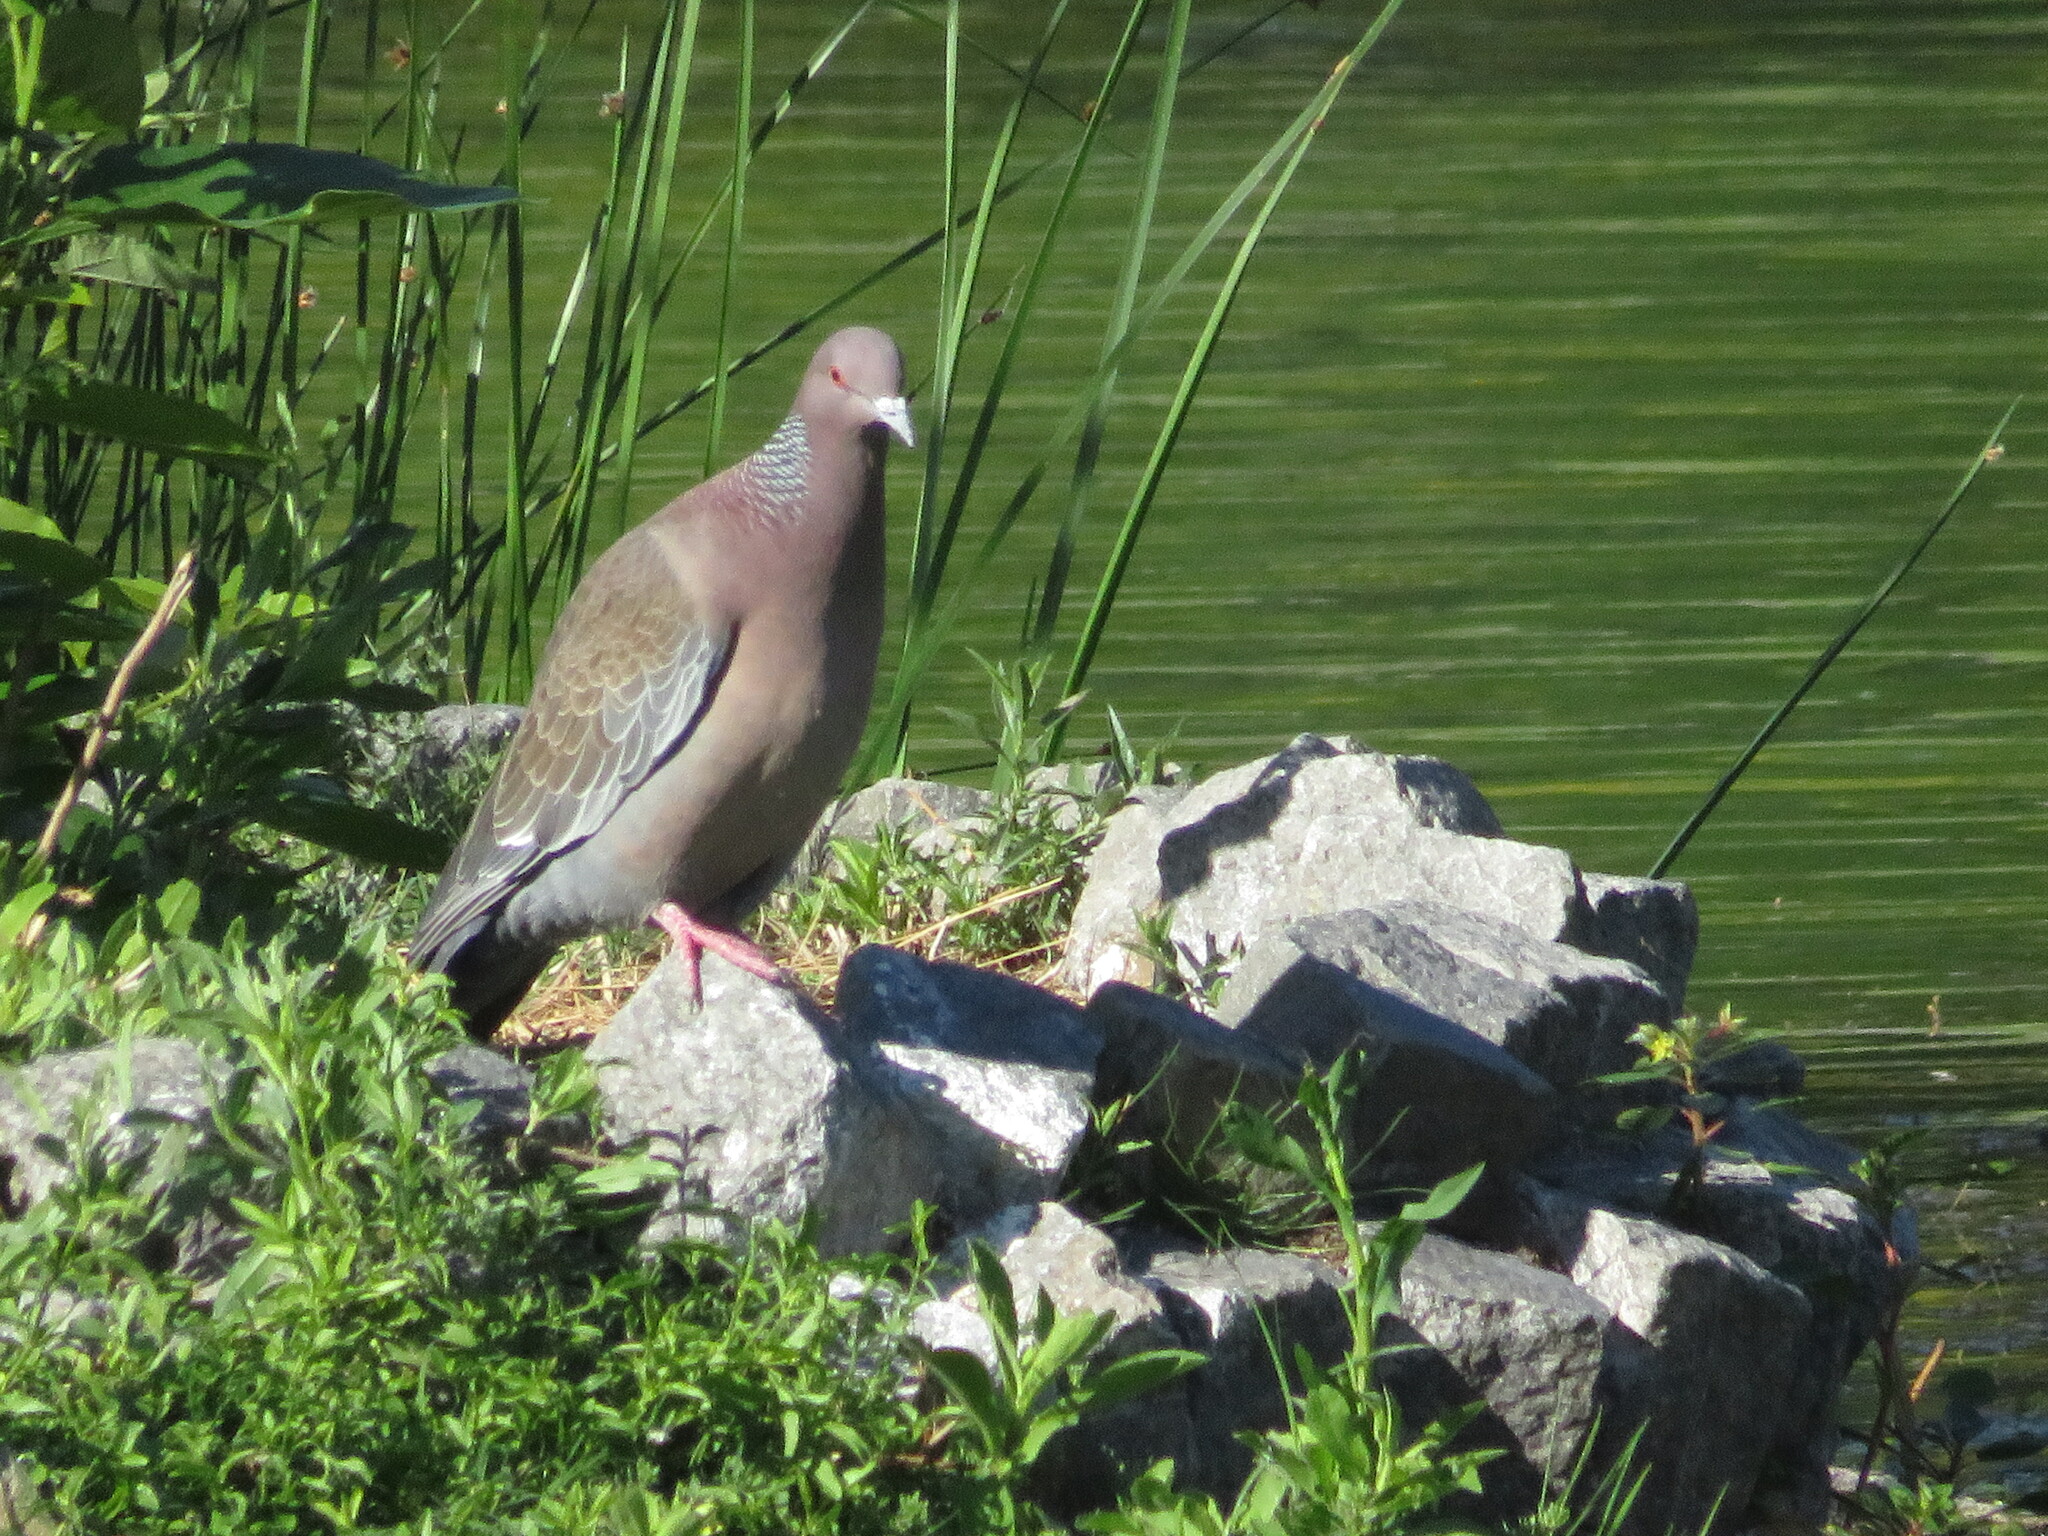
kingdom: Animalia
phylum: Chordata
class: Aves
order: Columbiformes
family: Columbidae
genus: Patagioenas
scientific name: Patagioenas picazuro
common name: Picazuro pigeon
